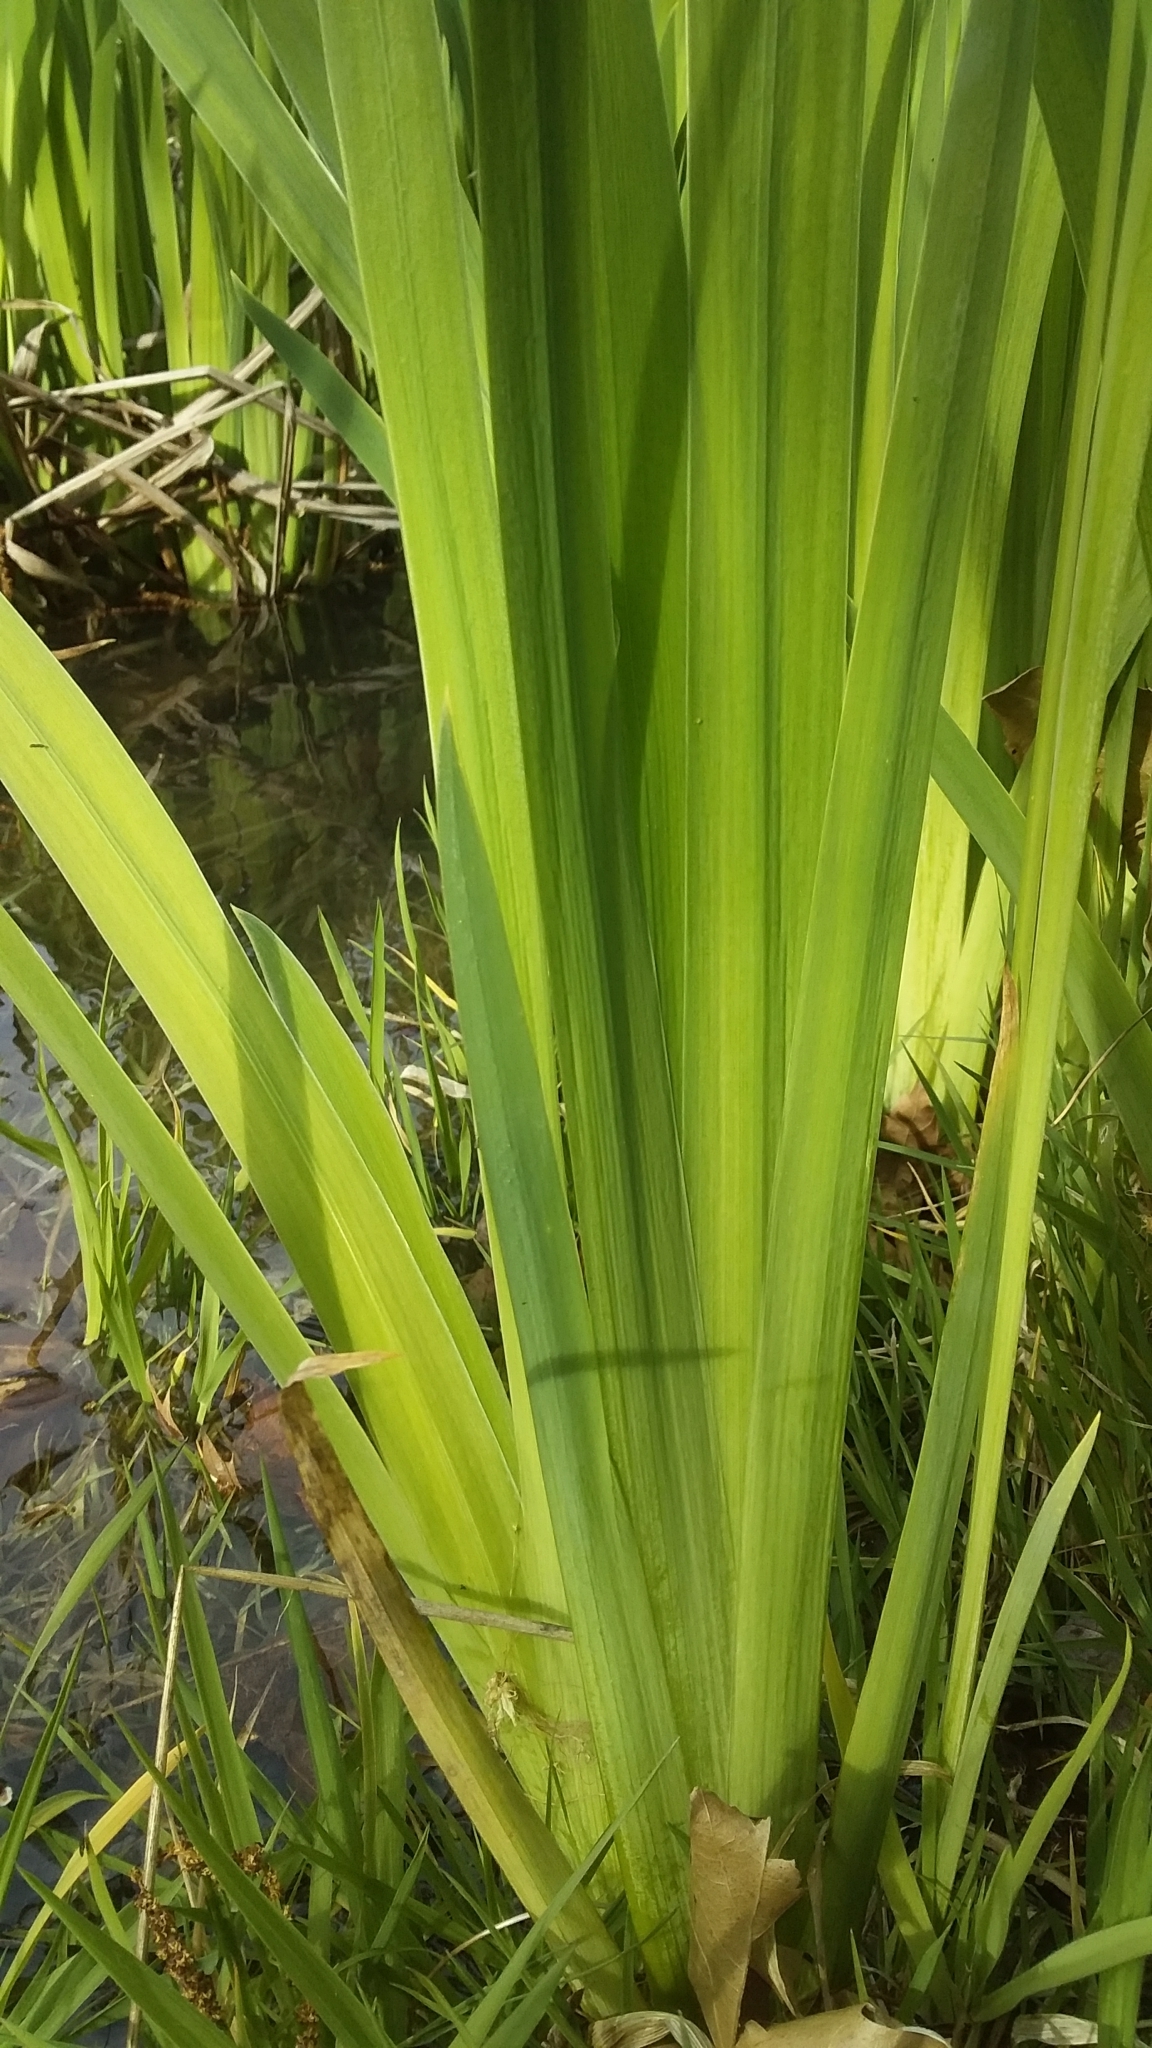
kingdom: Plantae
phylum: Tracheophyta
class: Liliopsida
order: Asparagales
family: Iridaceae
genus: Iris
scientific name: Iris pseudacorus
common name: Yellow flag
